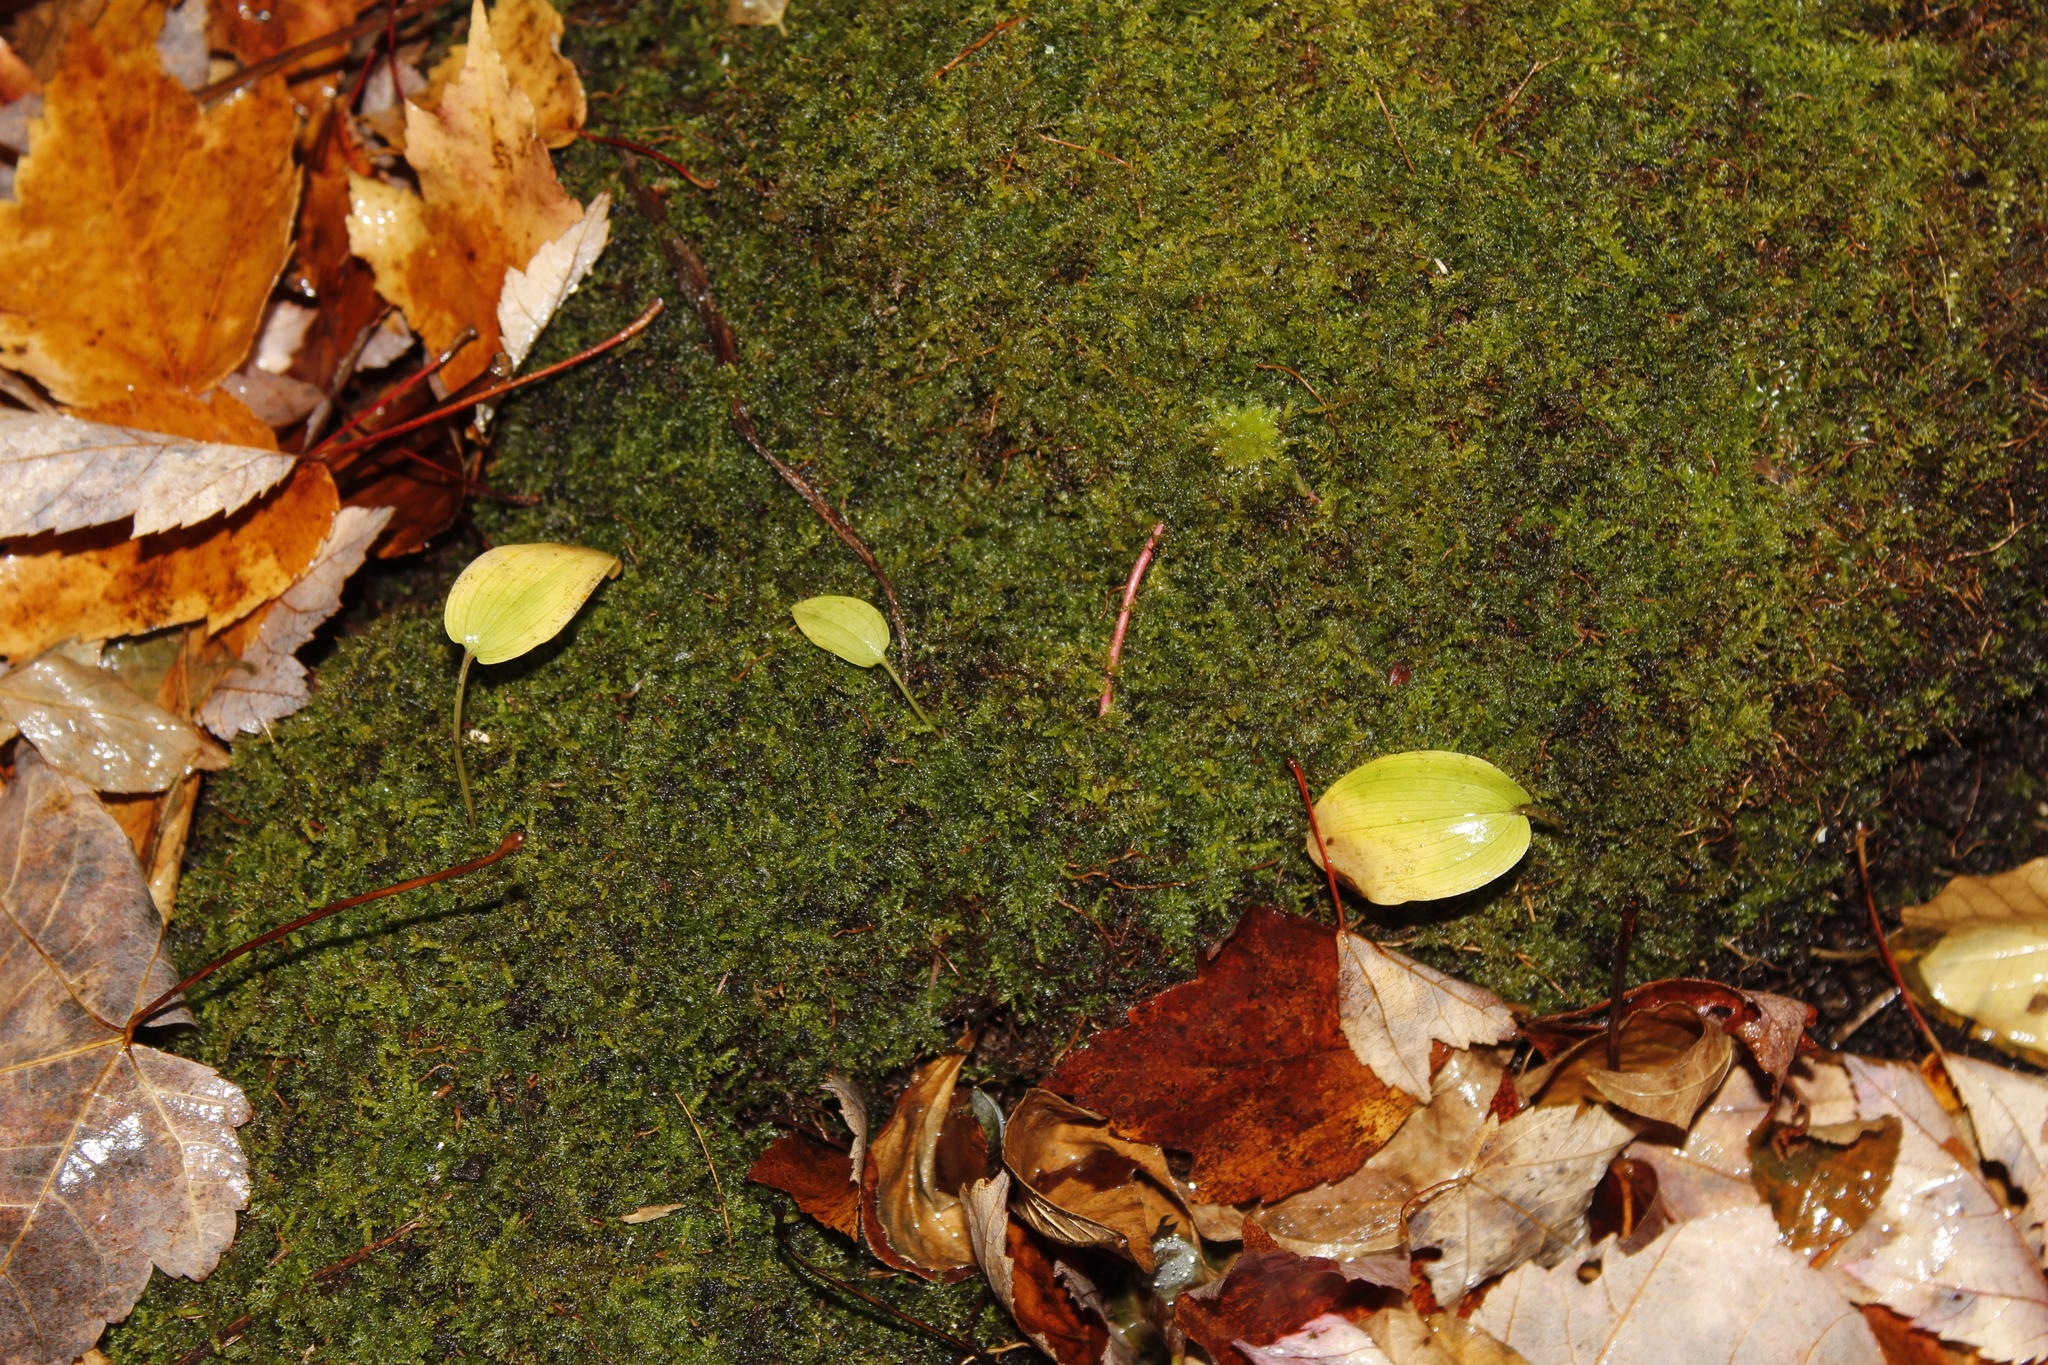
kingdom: Plantae
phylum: Tracheophyta
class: Liliopsida
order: Asparagales
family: Asparagaceae
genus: Maianthemum
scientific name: Maianthemum canadense
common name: False lily-of-the-valley
